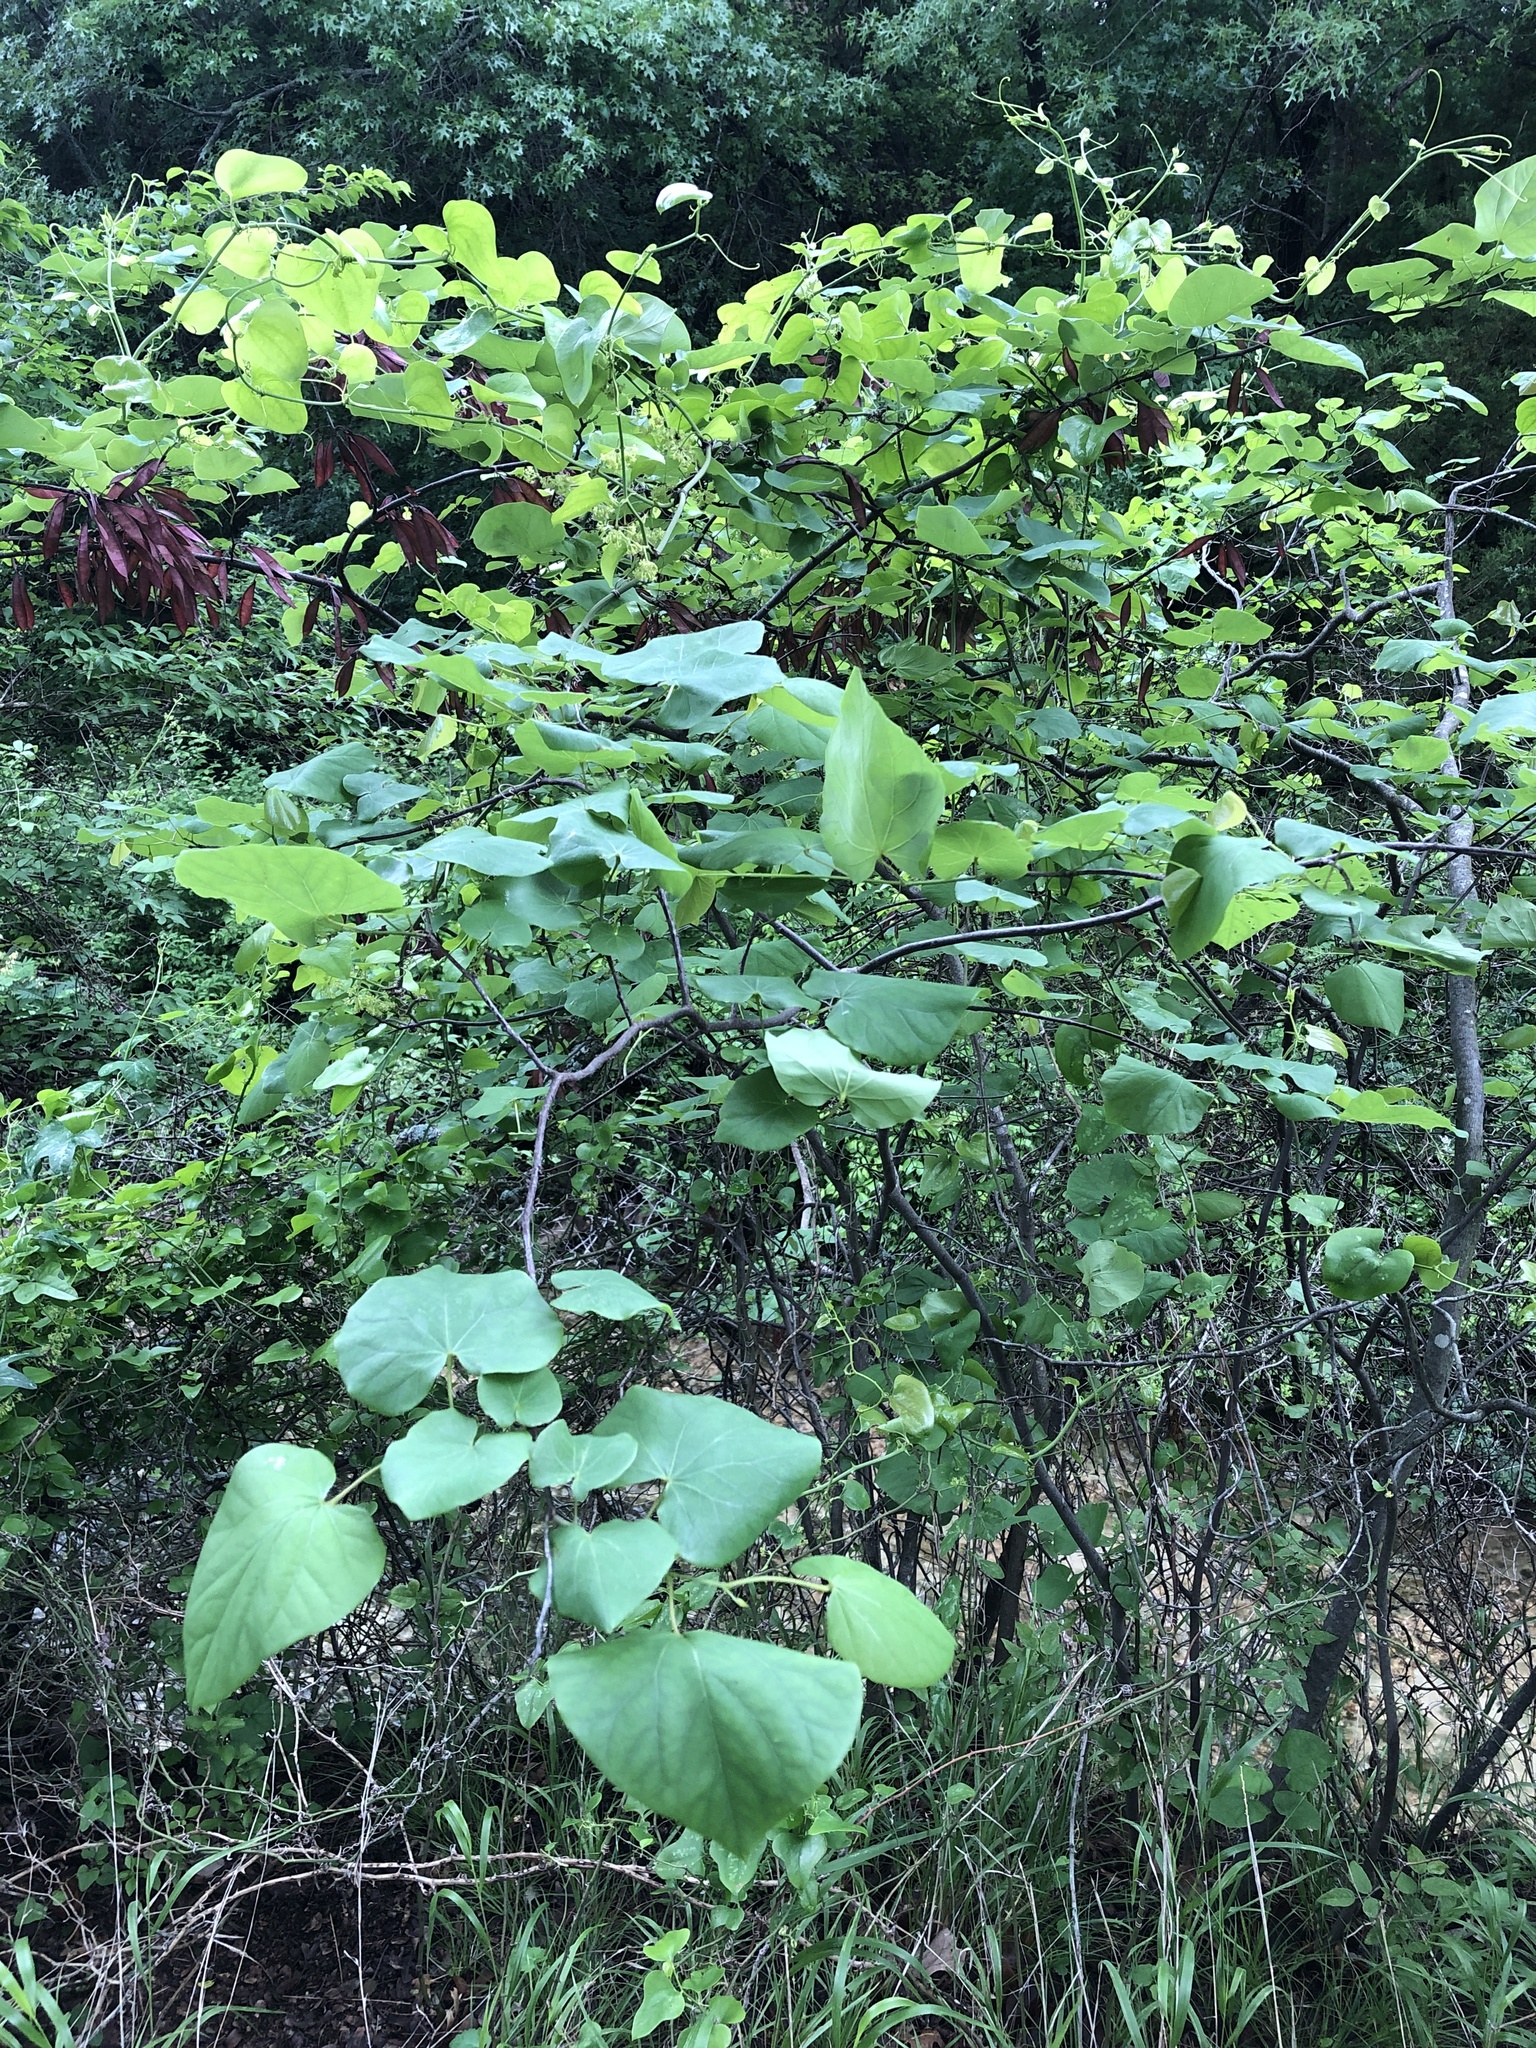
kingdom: Plantae
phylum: Tracheophyta
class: Magnoliopsida
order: Fabales
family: Fabaceae
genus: Cercis
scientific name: Cercis canadensis
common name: Eastern redbud
